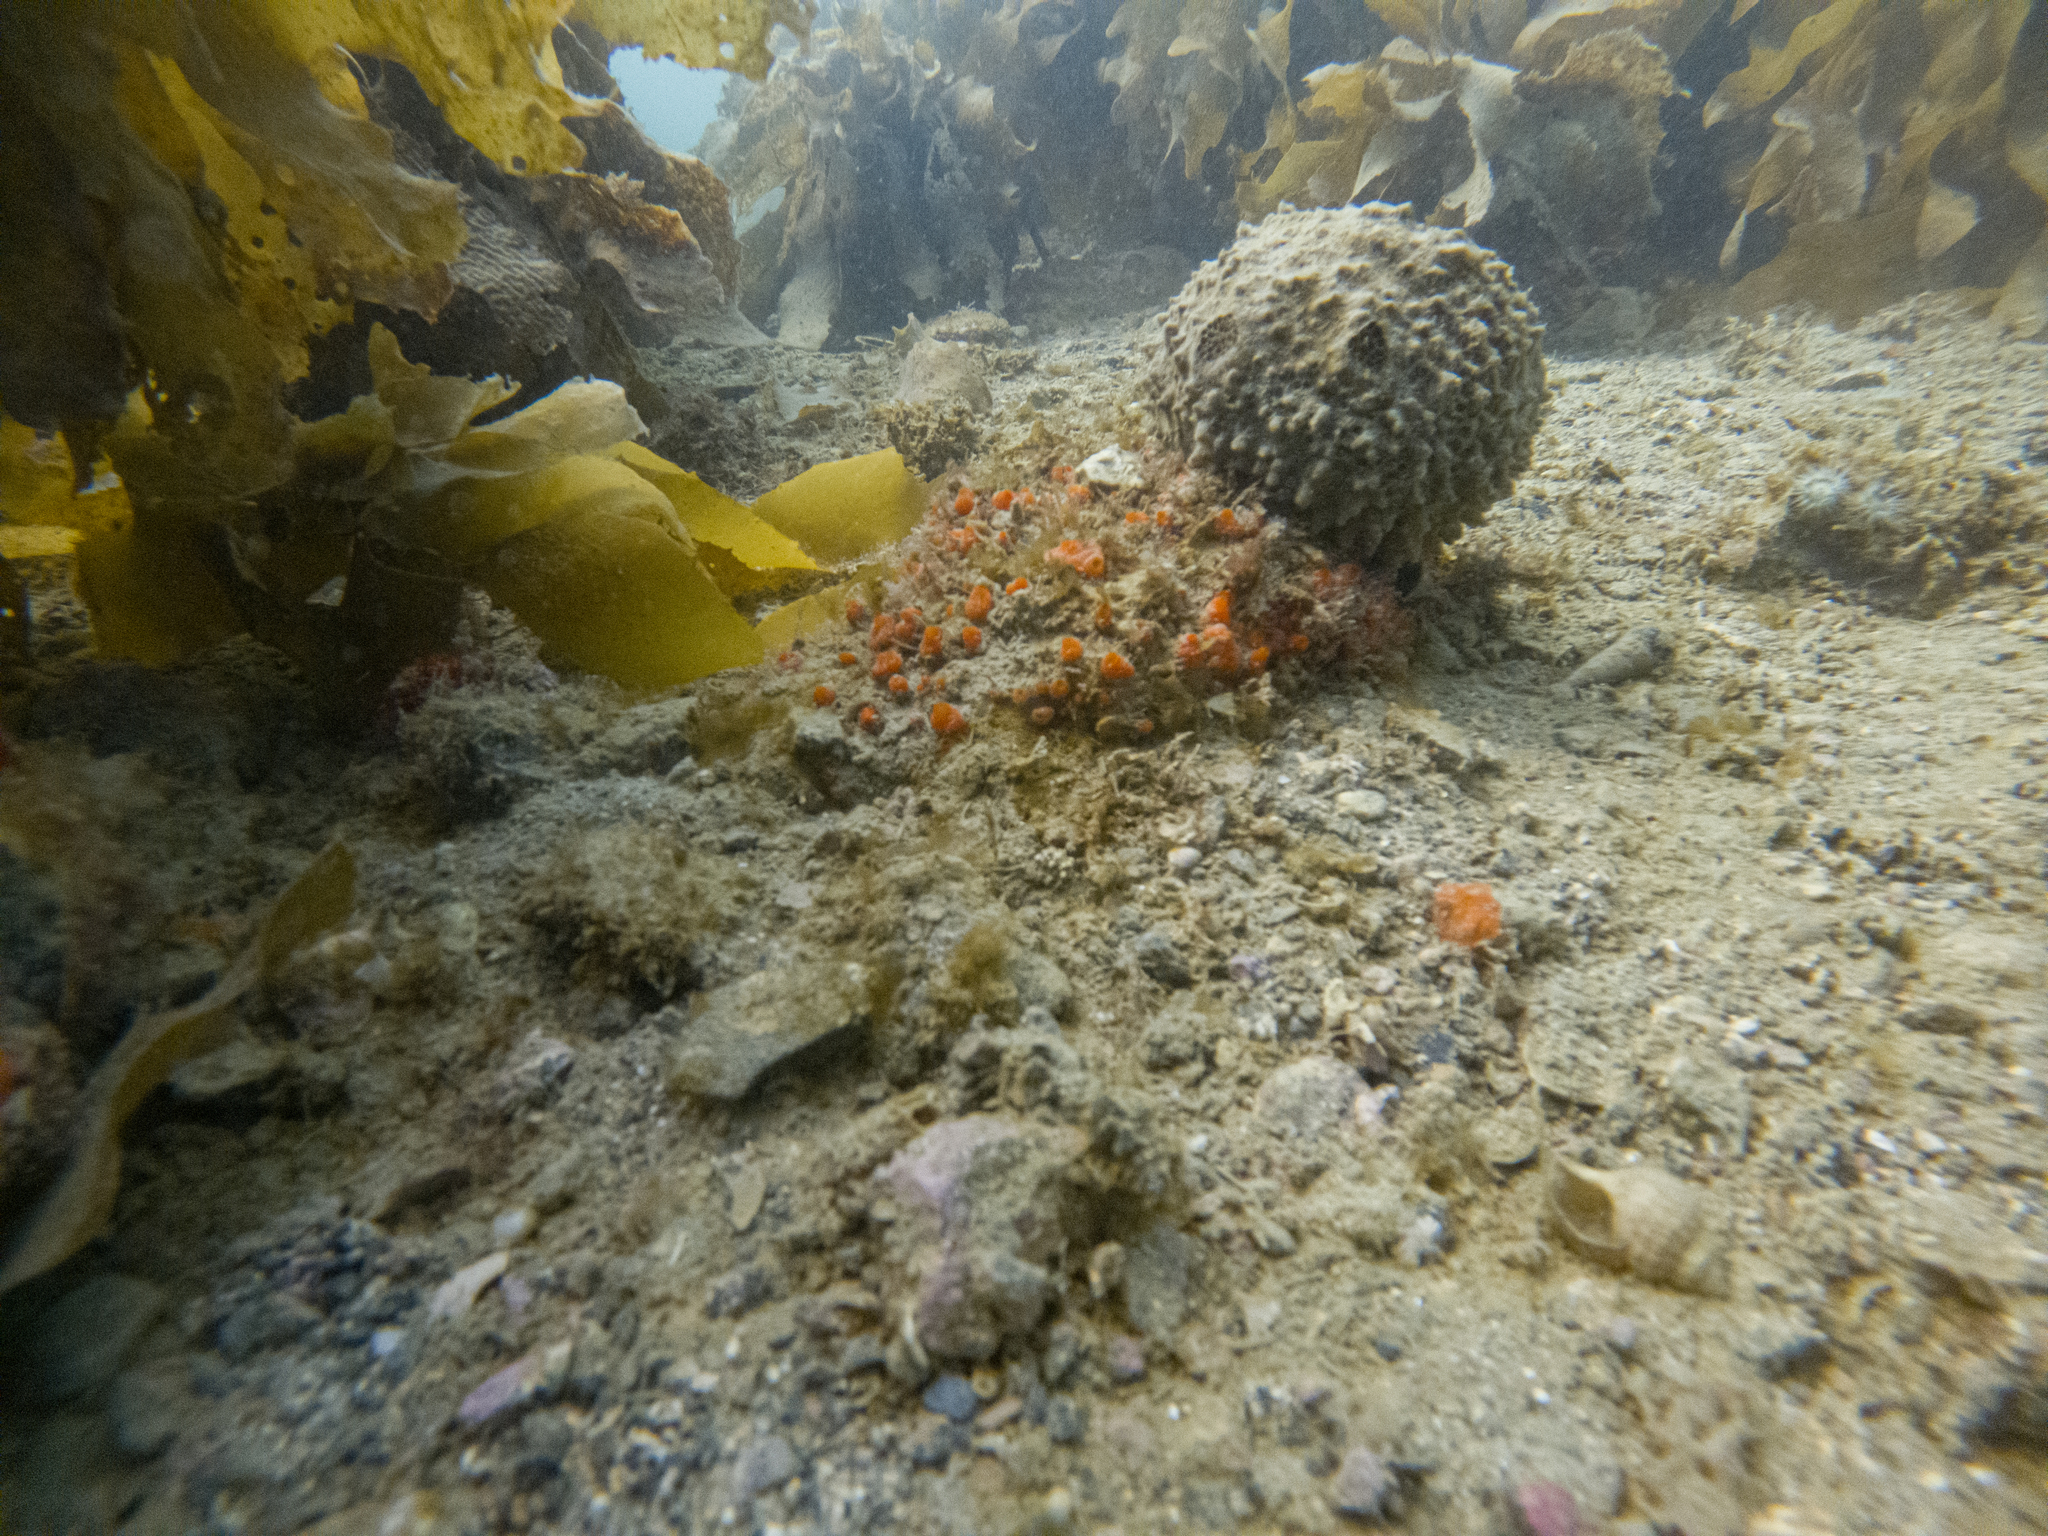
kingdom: Animalia
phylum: Porifera
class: Demospongiae
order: Suberitida
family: Suberitidae
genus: Aaptos
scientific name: Aaptos tenta
